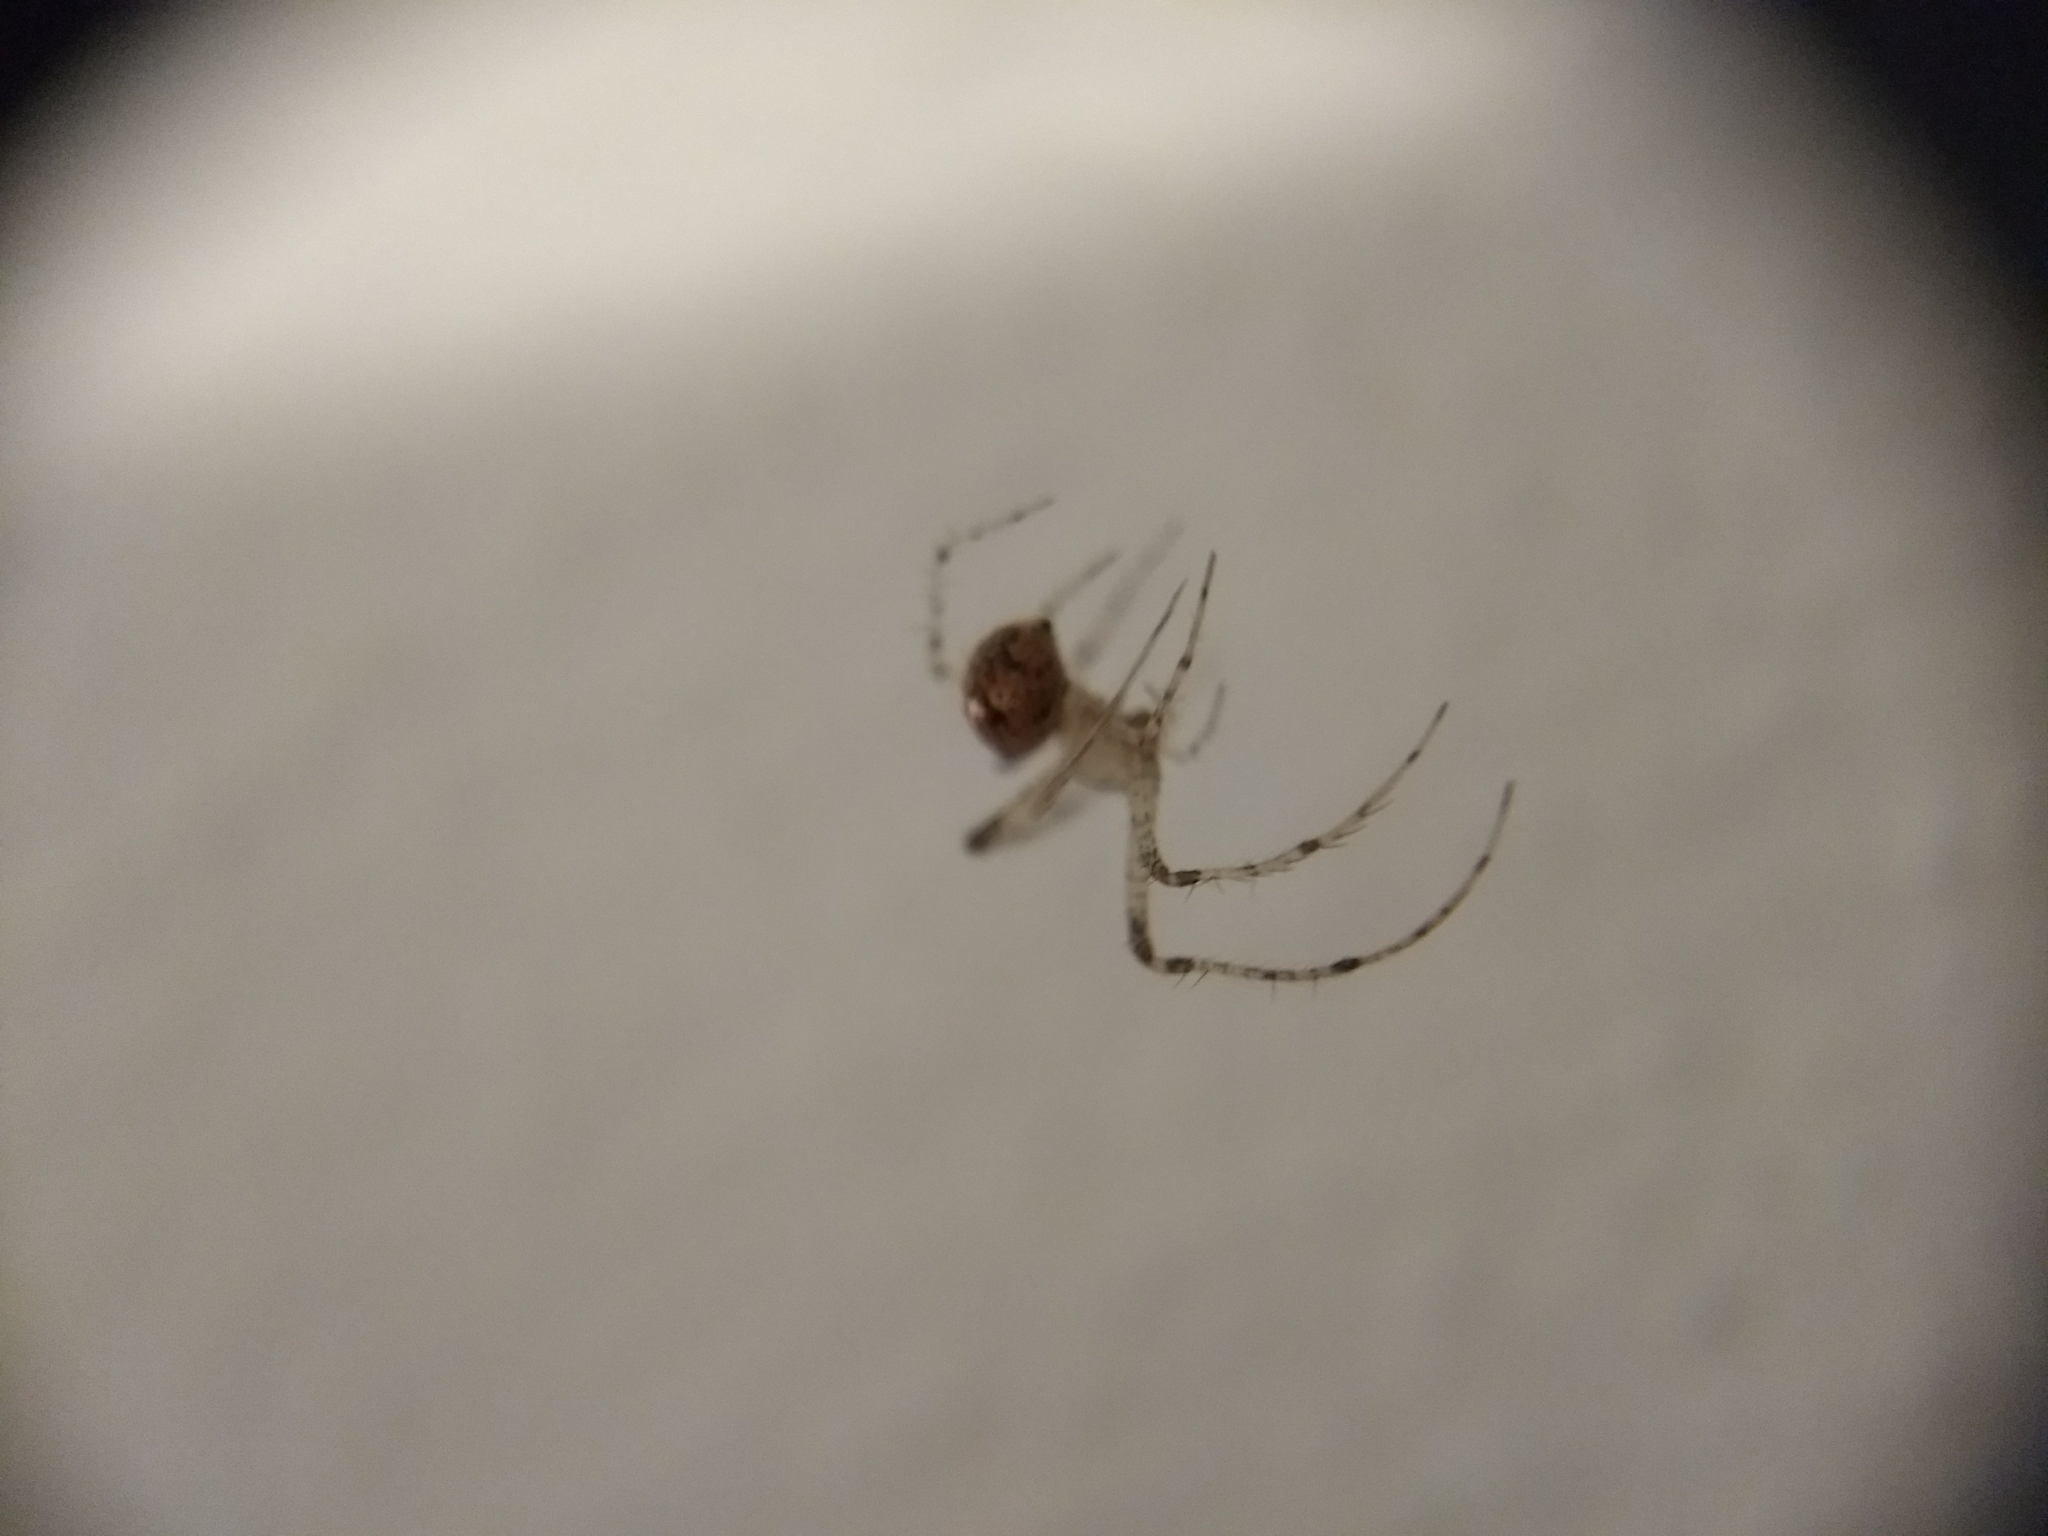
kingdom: Animalia
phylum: Arthropoda
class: Arachnida
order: Araneae
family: Mimetidae
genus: Mimetus
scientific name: Mimetus puritanus
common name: Common pirate spider
